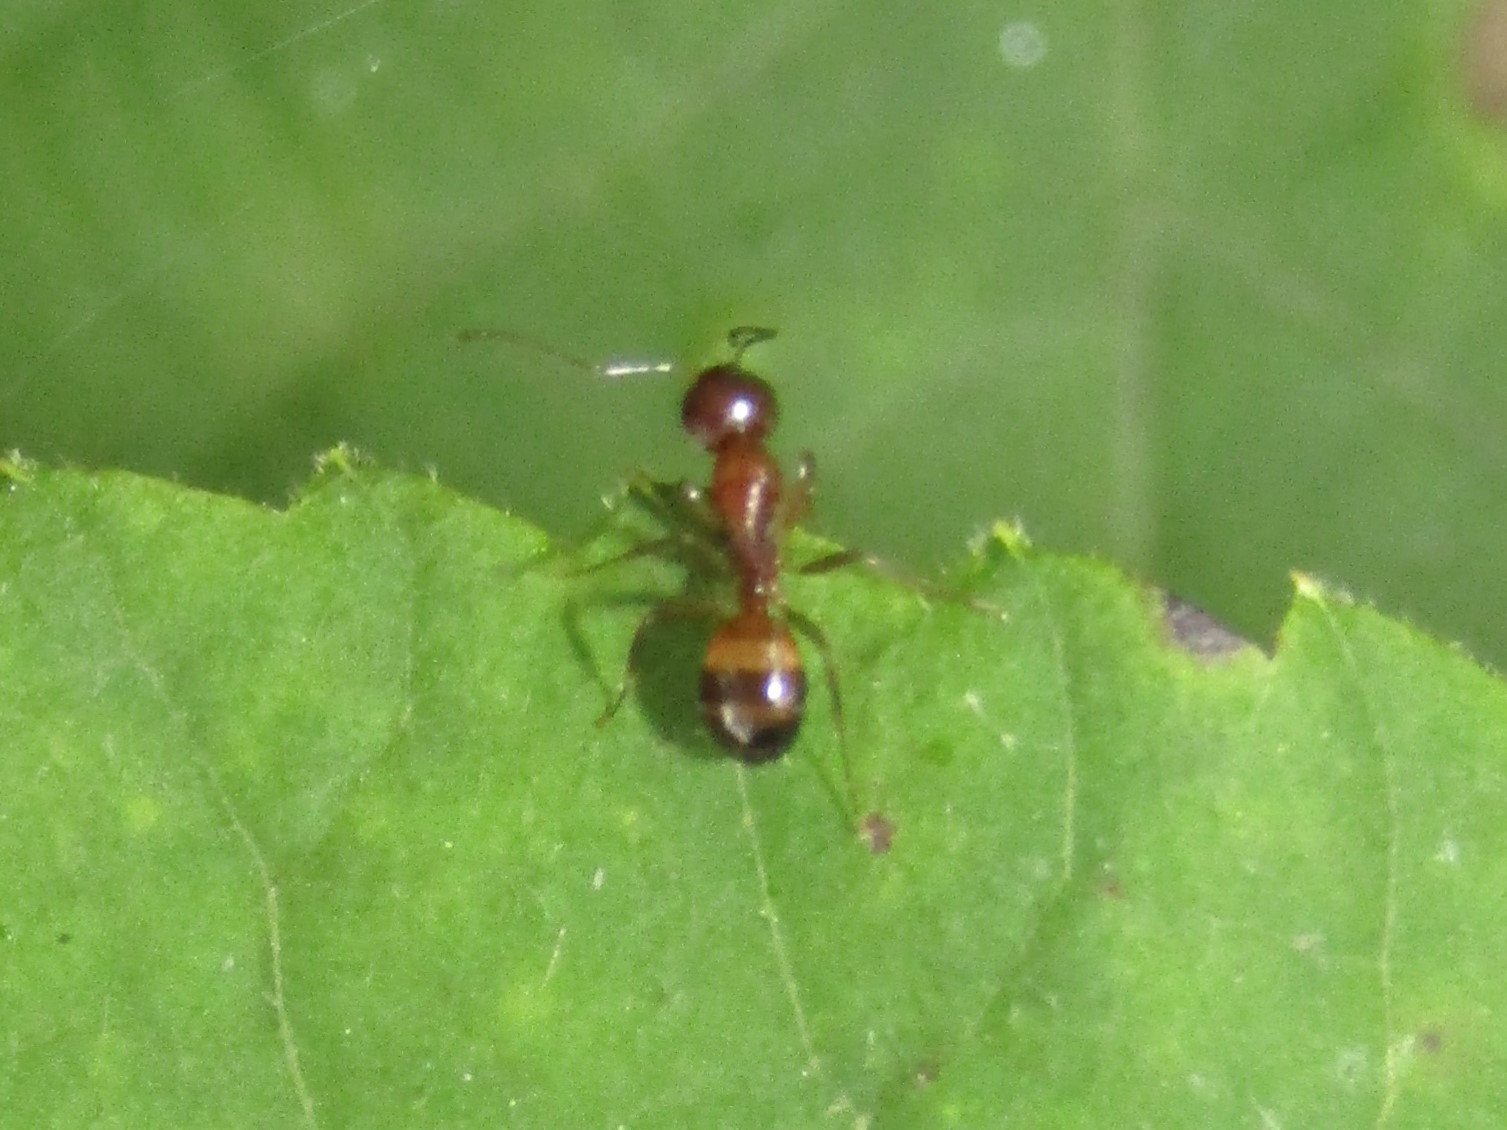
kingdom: Animalia
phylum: Arthropoda
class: Insecta
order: Hymenoptera
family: Formicidae
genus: Camponotus
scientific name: Camponotus subbarbatus
